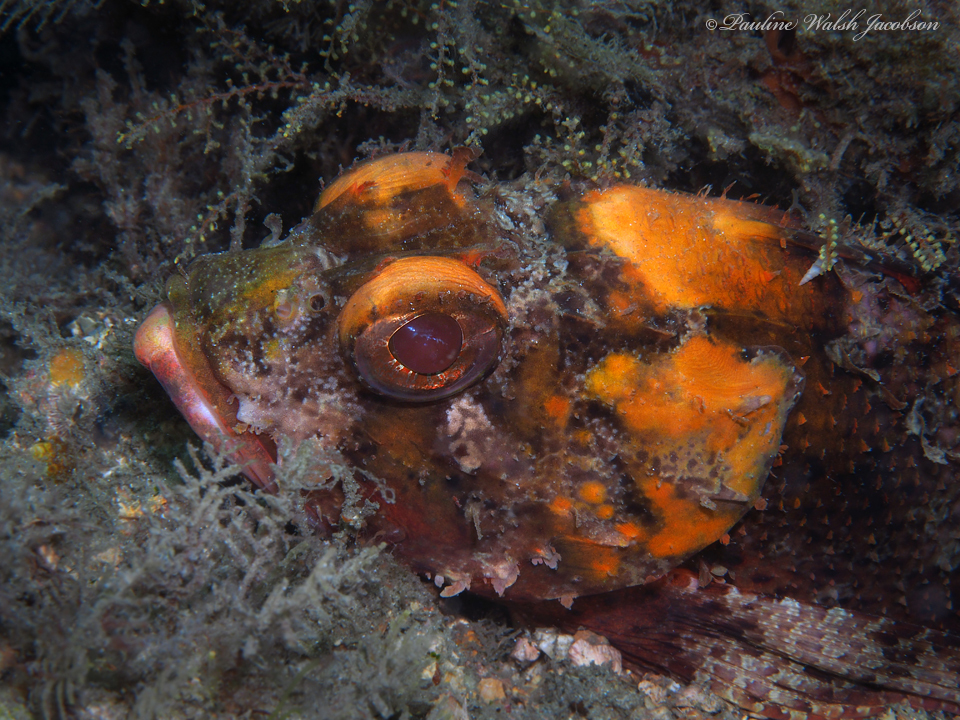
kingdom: Animalia
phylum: Chordata
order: Scorpaeniformes
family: Scorpaenidae
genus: Scorpaena
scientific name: Scorpaena brasiliensis
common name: Barbfish
